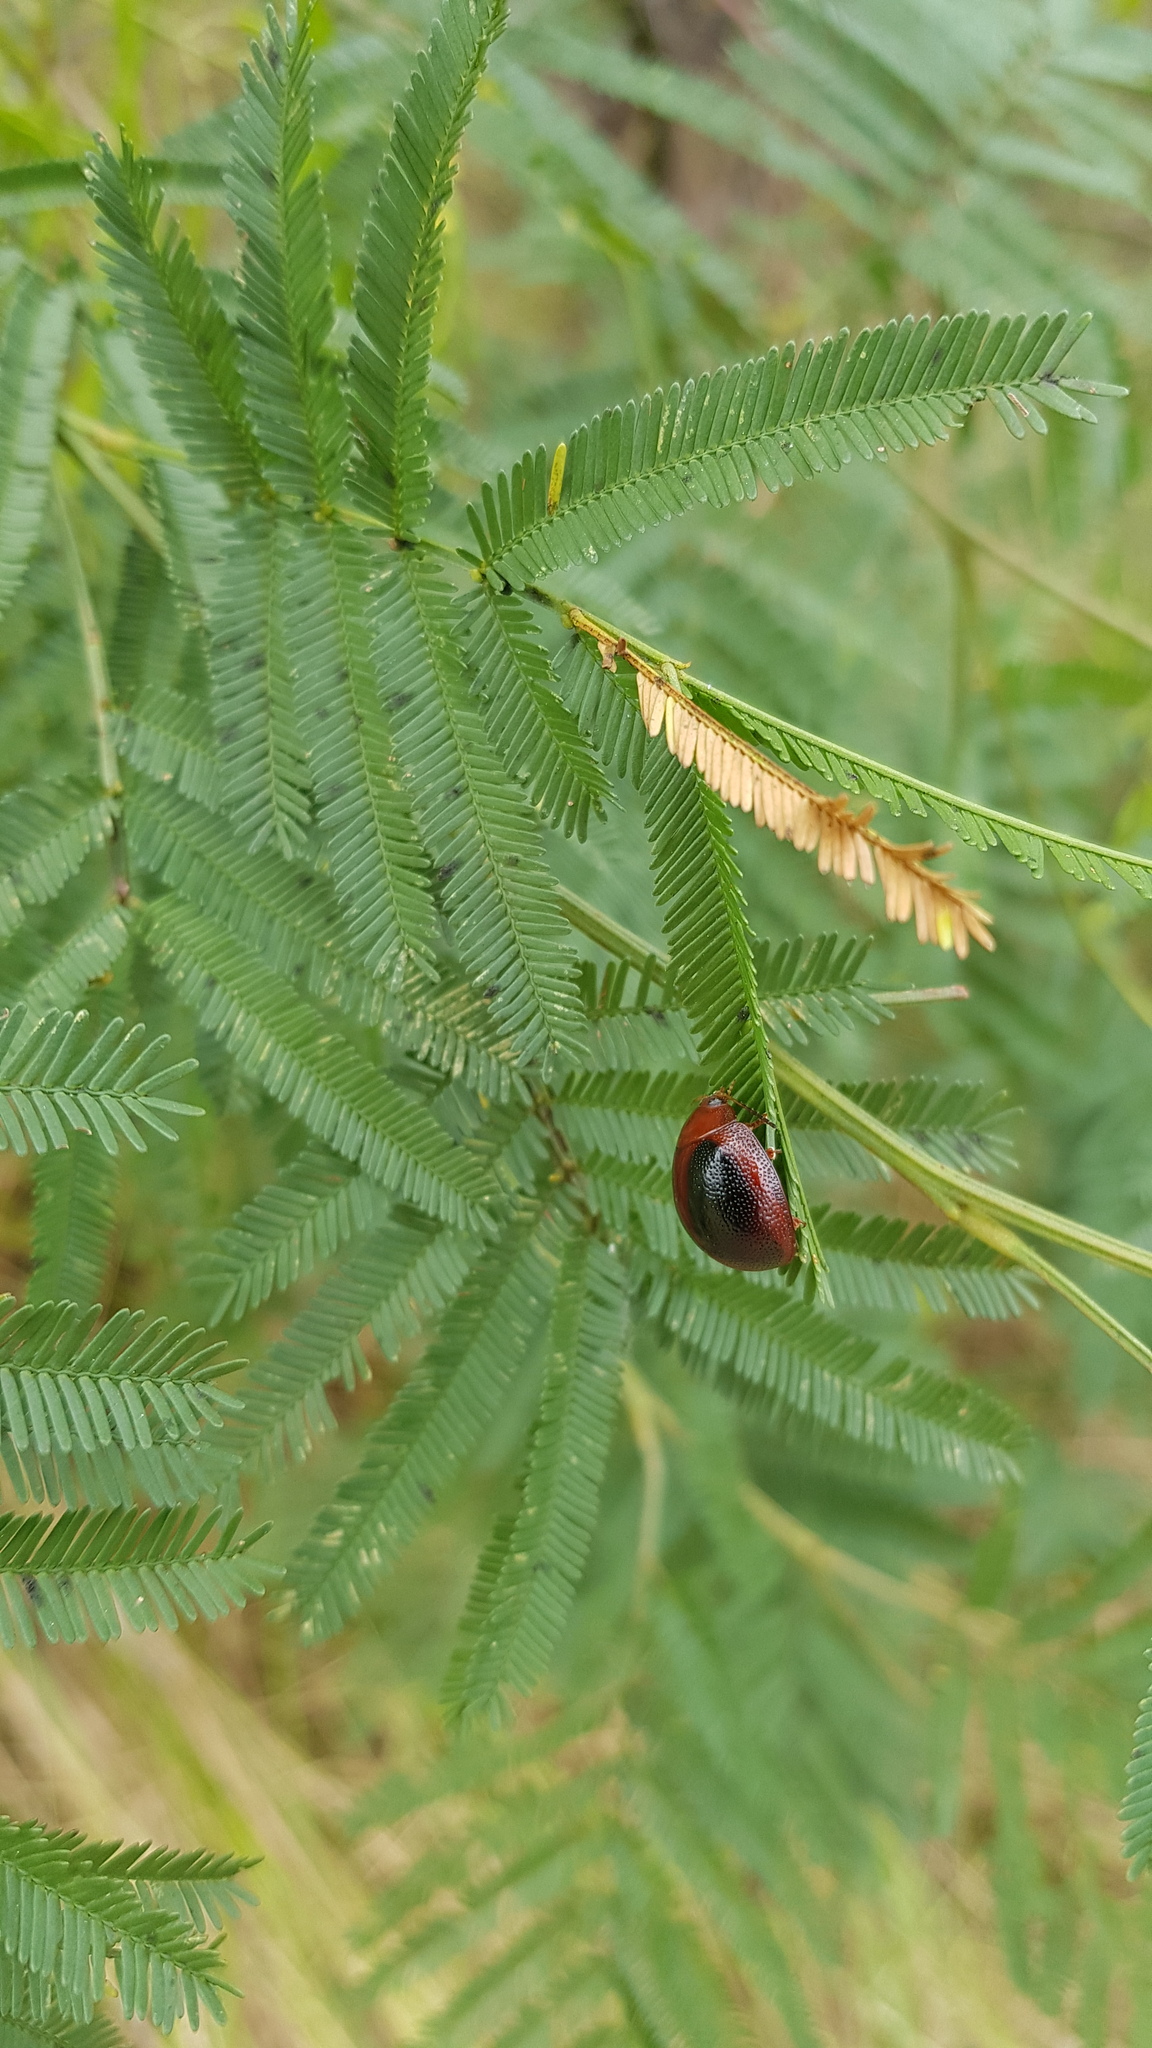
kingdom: Animalia
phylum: Arthropoda
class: Insecta
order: Coleoptera
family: Chrysomelidae
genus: Dicranosterna
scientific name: Dicranosterna
